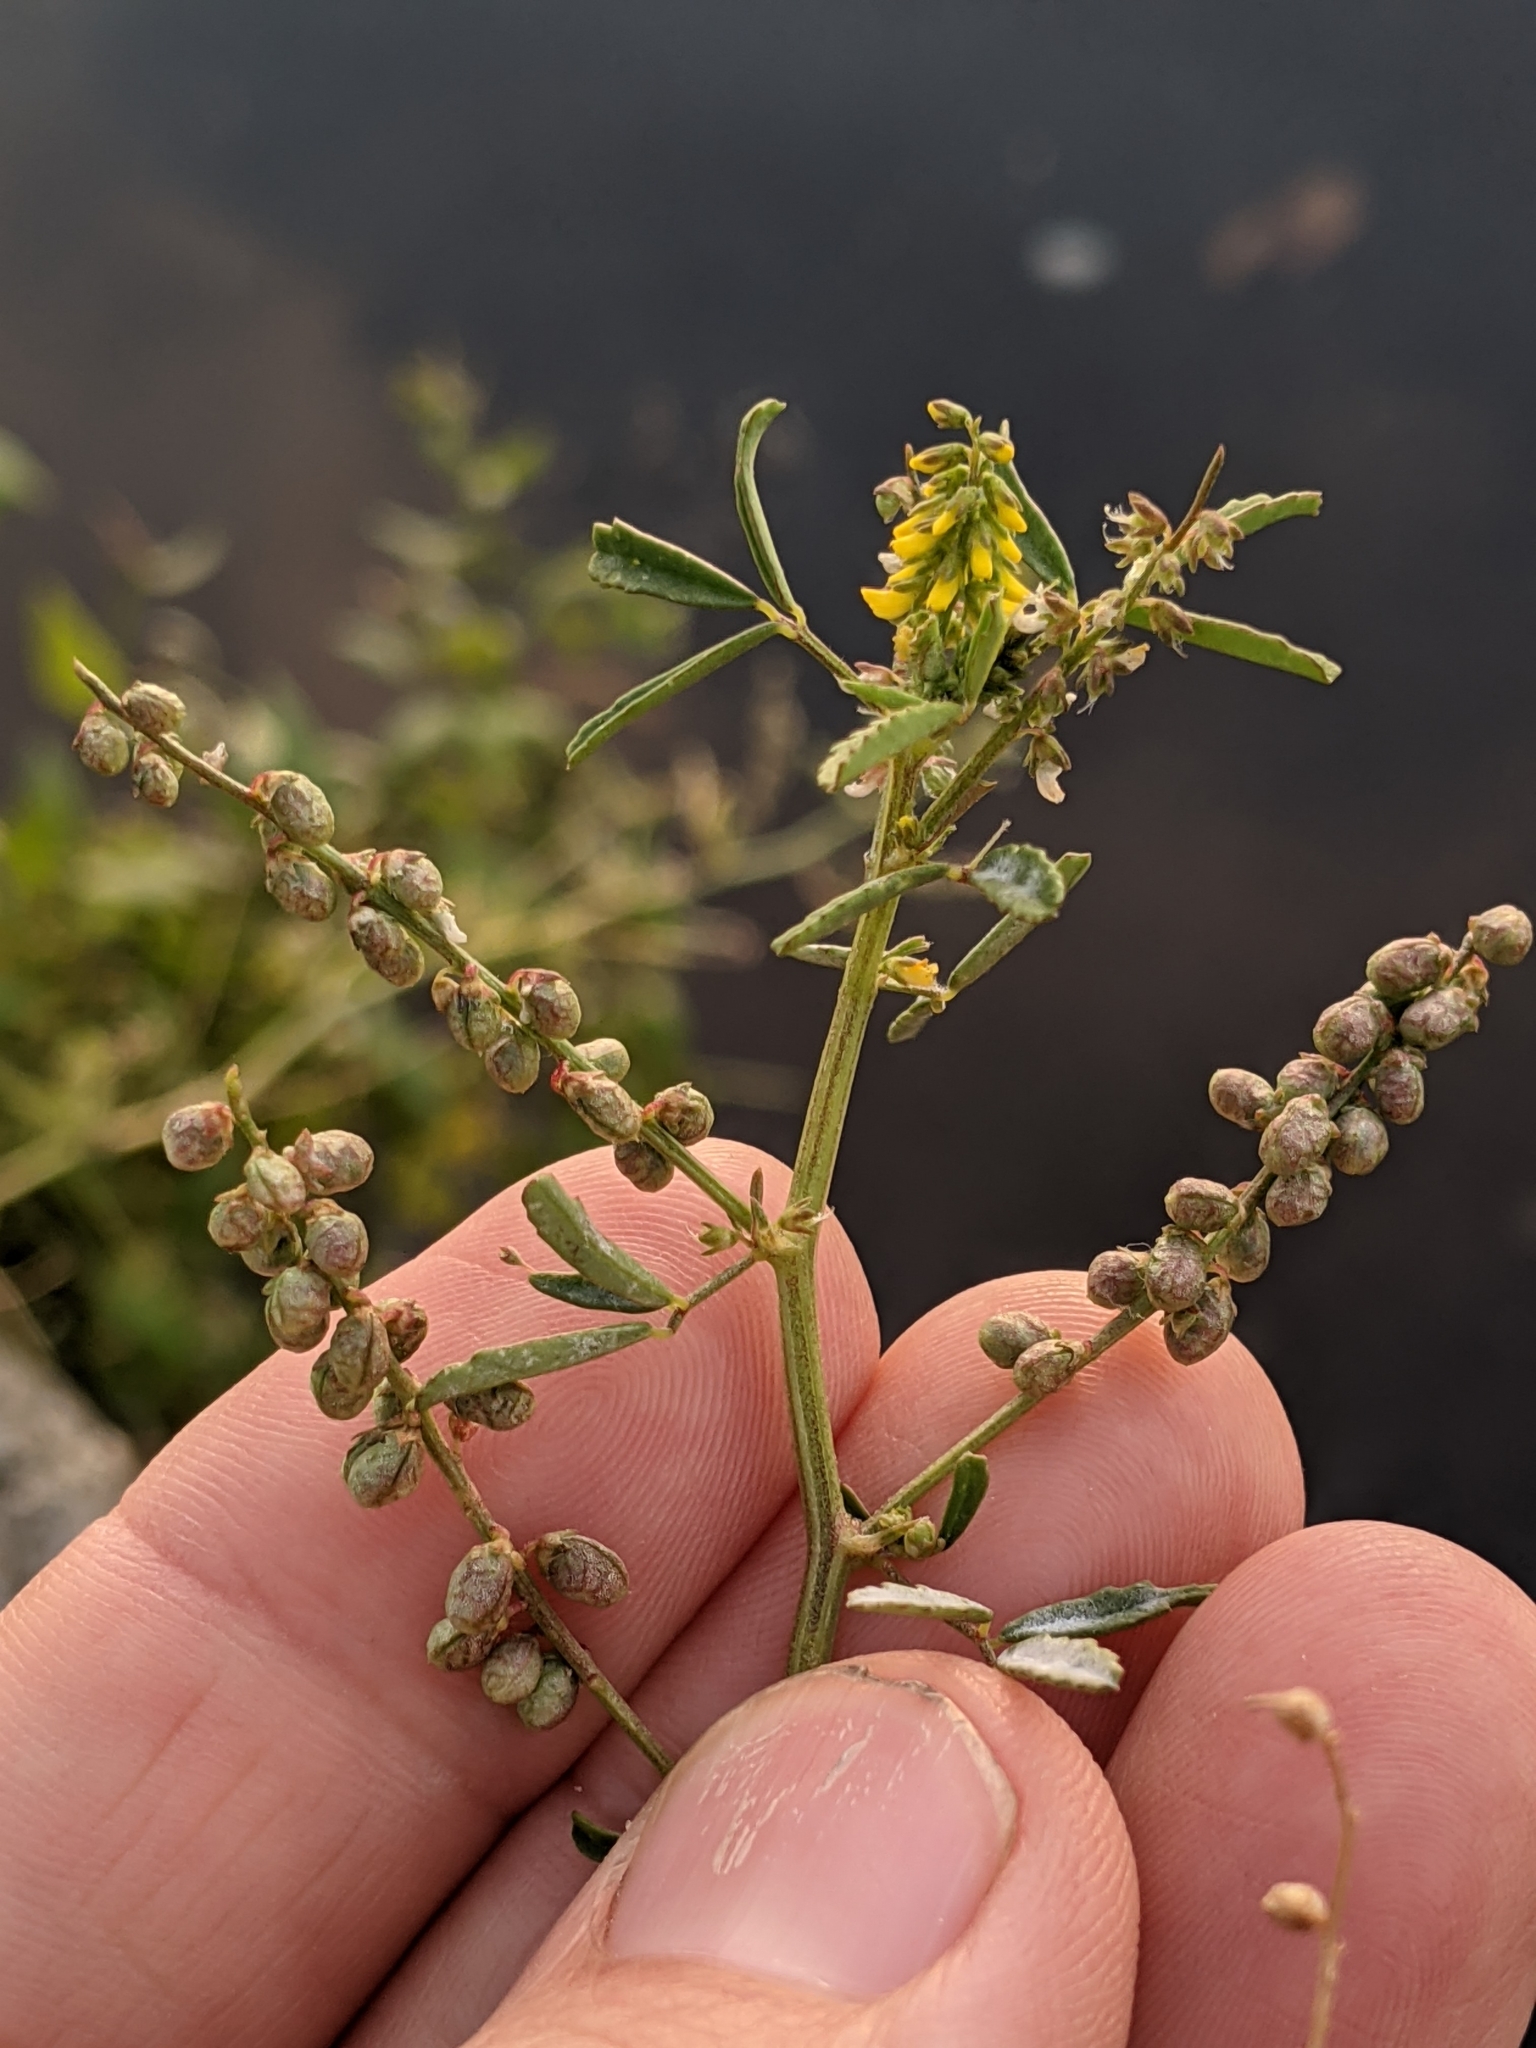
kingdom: Plantae
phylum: Tracheophyta
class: Magnoliopsida
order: Fabales
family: Fabaceae
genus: Melilotus
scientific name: Melilotus indicus
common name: Small melilot
